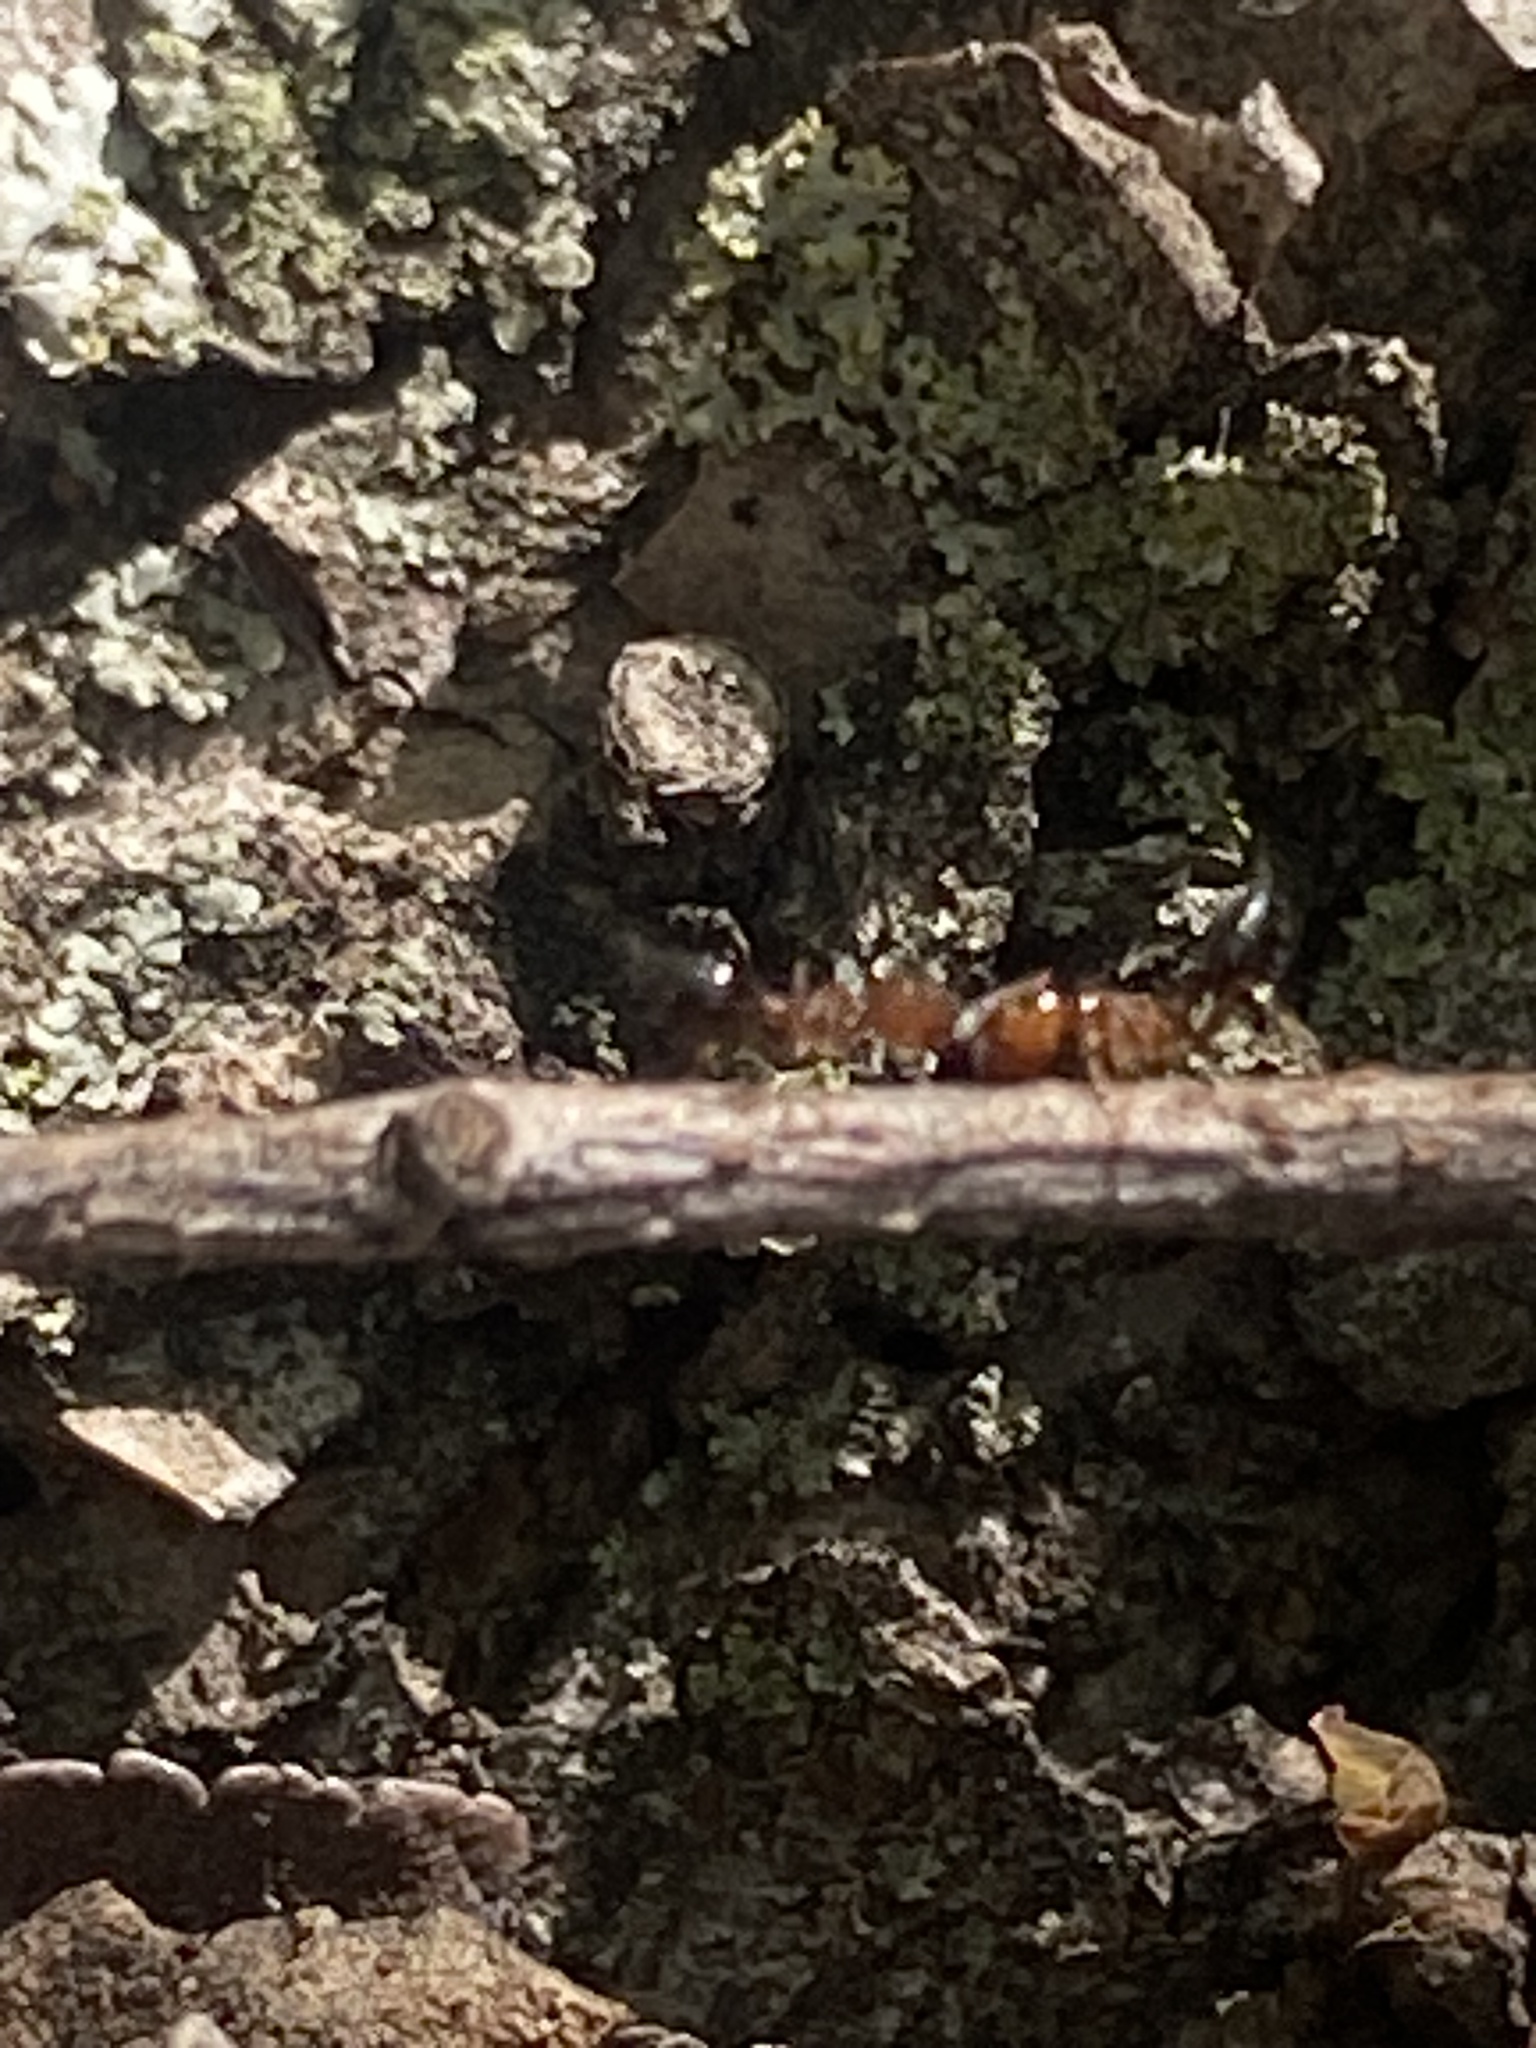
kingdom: Animalia
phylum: Arthropoda
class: Insecta
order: Hymenoptera
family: Formicidae
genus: Crematogaster
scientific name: Crematogaster laeviuscula
